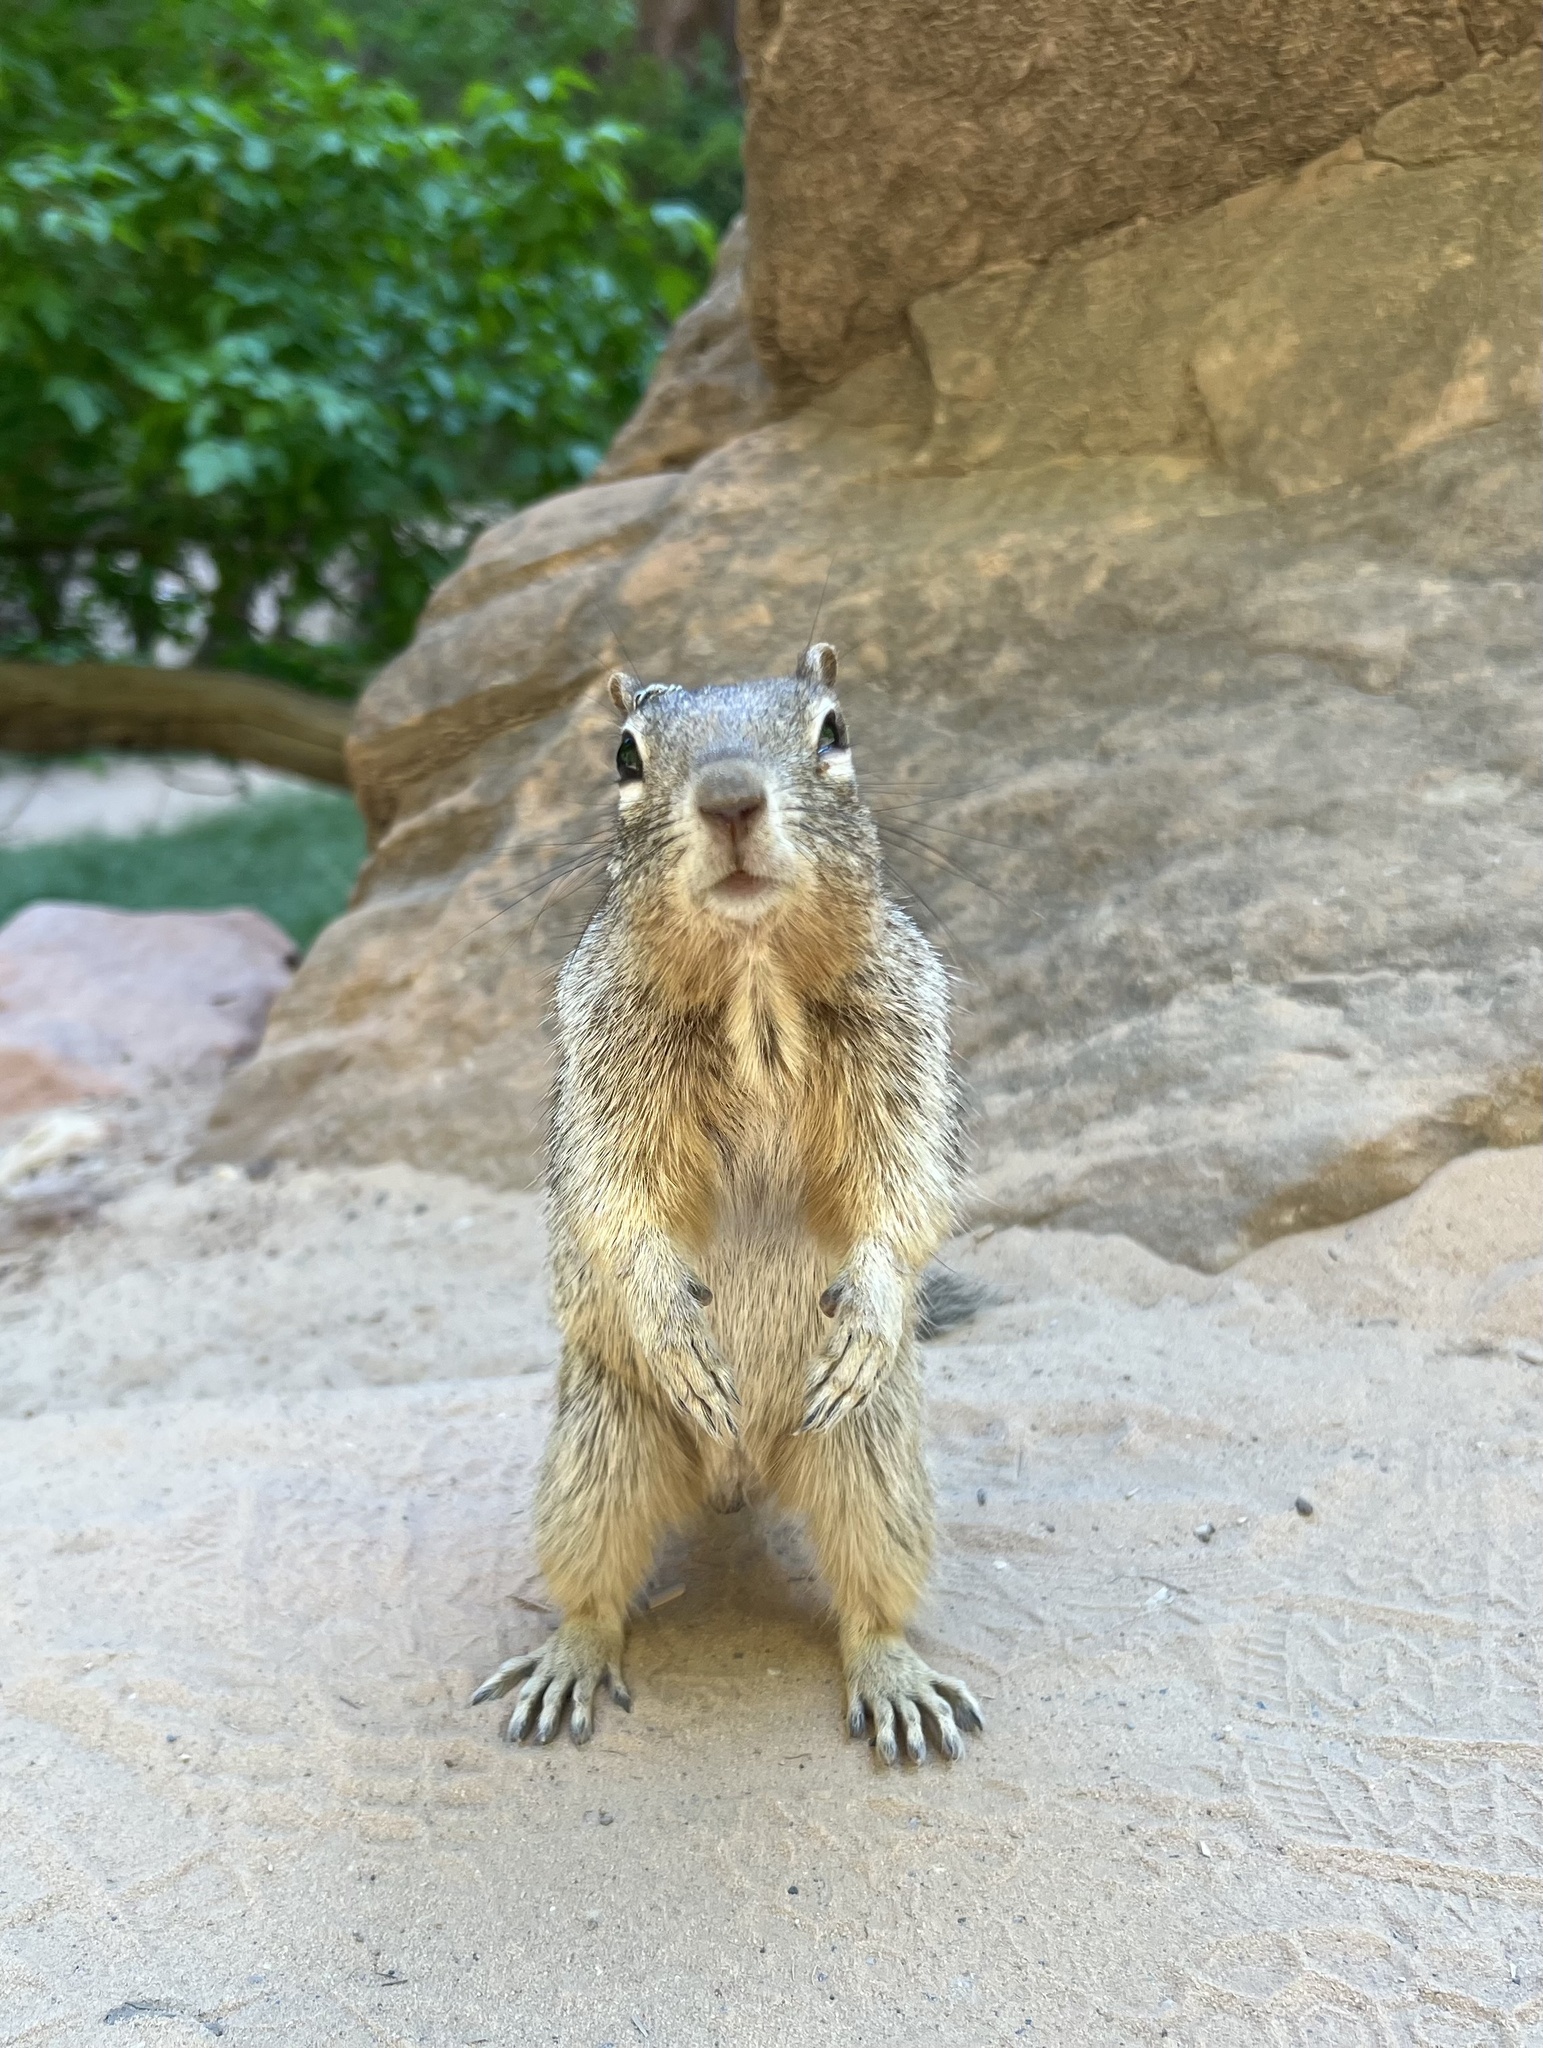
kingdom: Animalia
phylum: Chordata
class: Mammalia
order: Rodentia
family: Sciuridae
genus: Otospermophilus
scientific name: Otospermophilus variegatus
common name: Rock squirrel
